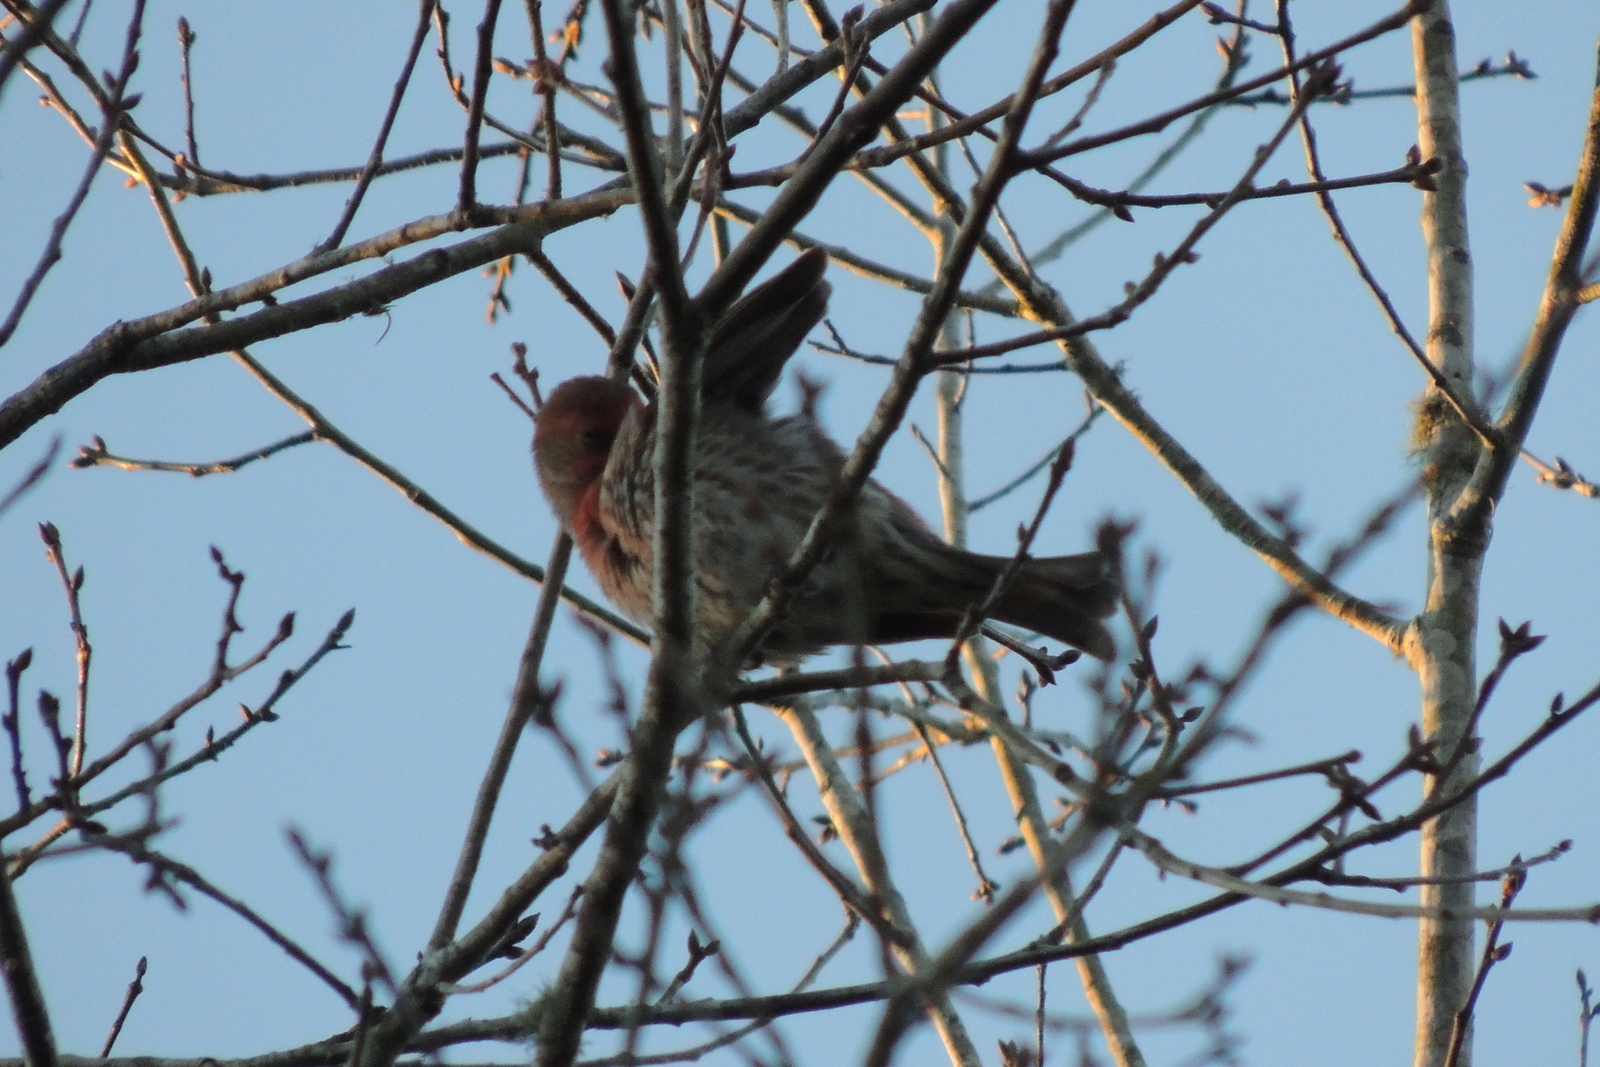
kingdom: Animalia
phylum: Chordata
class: Aves
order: Passeriformes
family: Fringillidae
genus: Haemorhous
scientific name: Haemorhous mexicanus
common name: House finch
